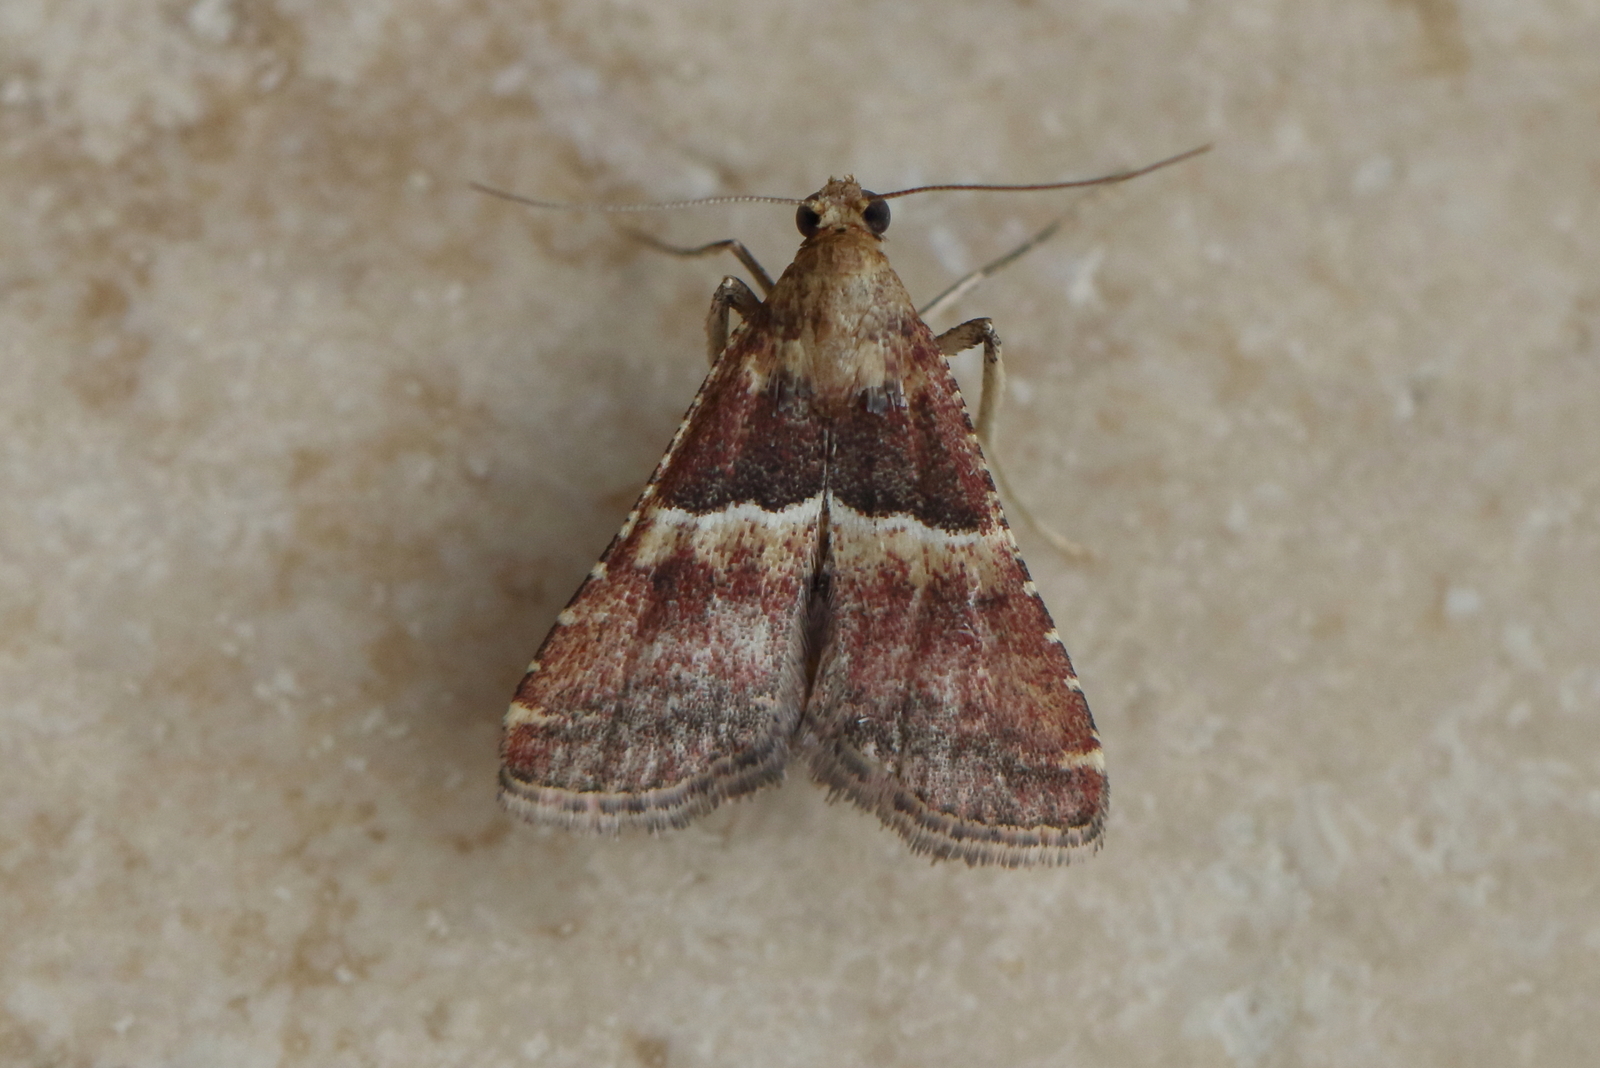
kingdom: Animalia
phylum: Arthropoda
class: Insecta
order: Lepidoptera
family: Pyralidae
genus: Endotricha
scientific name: Endotricha puncticostalis
